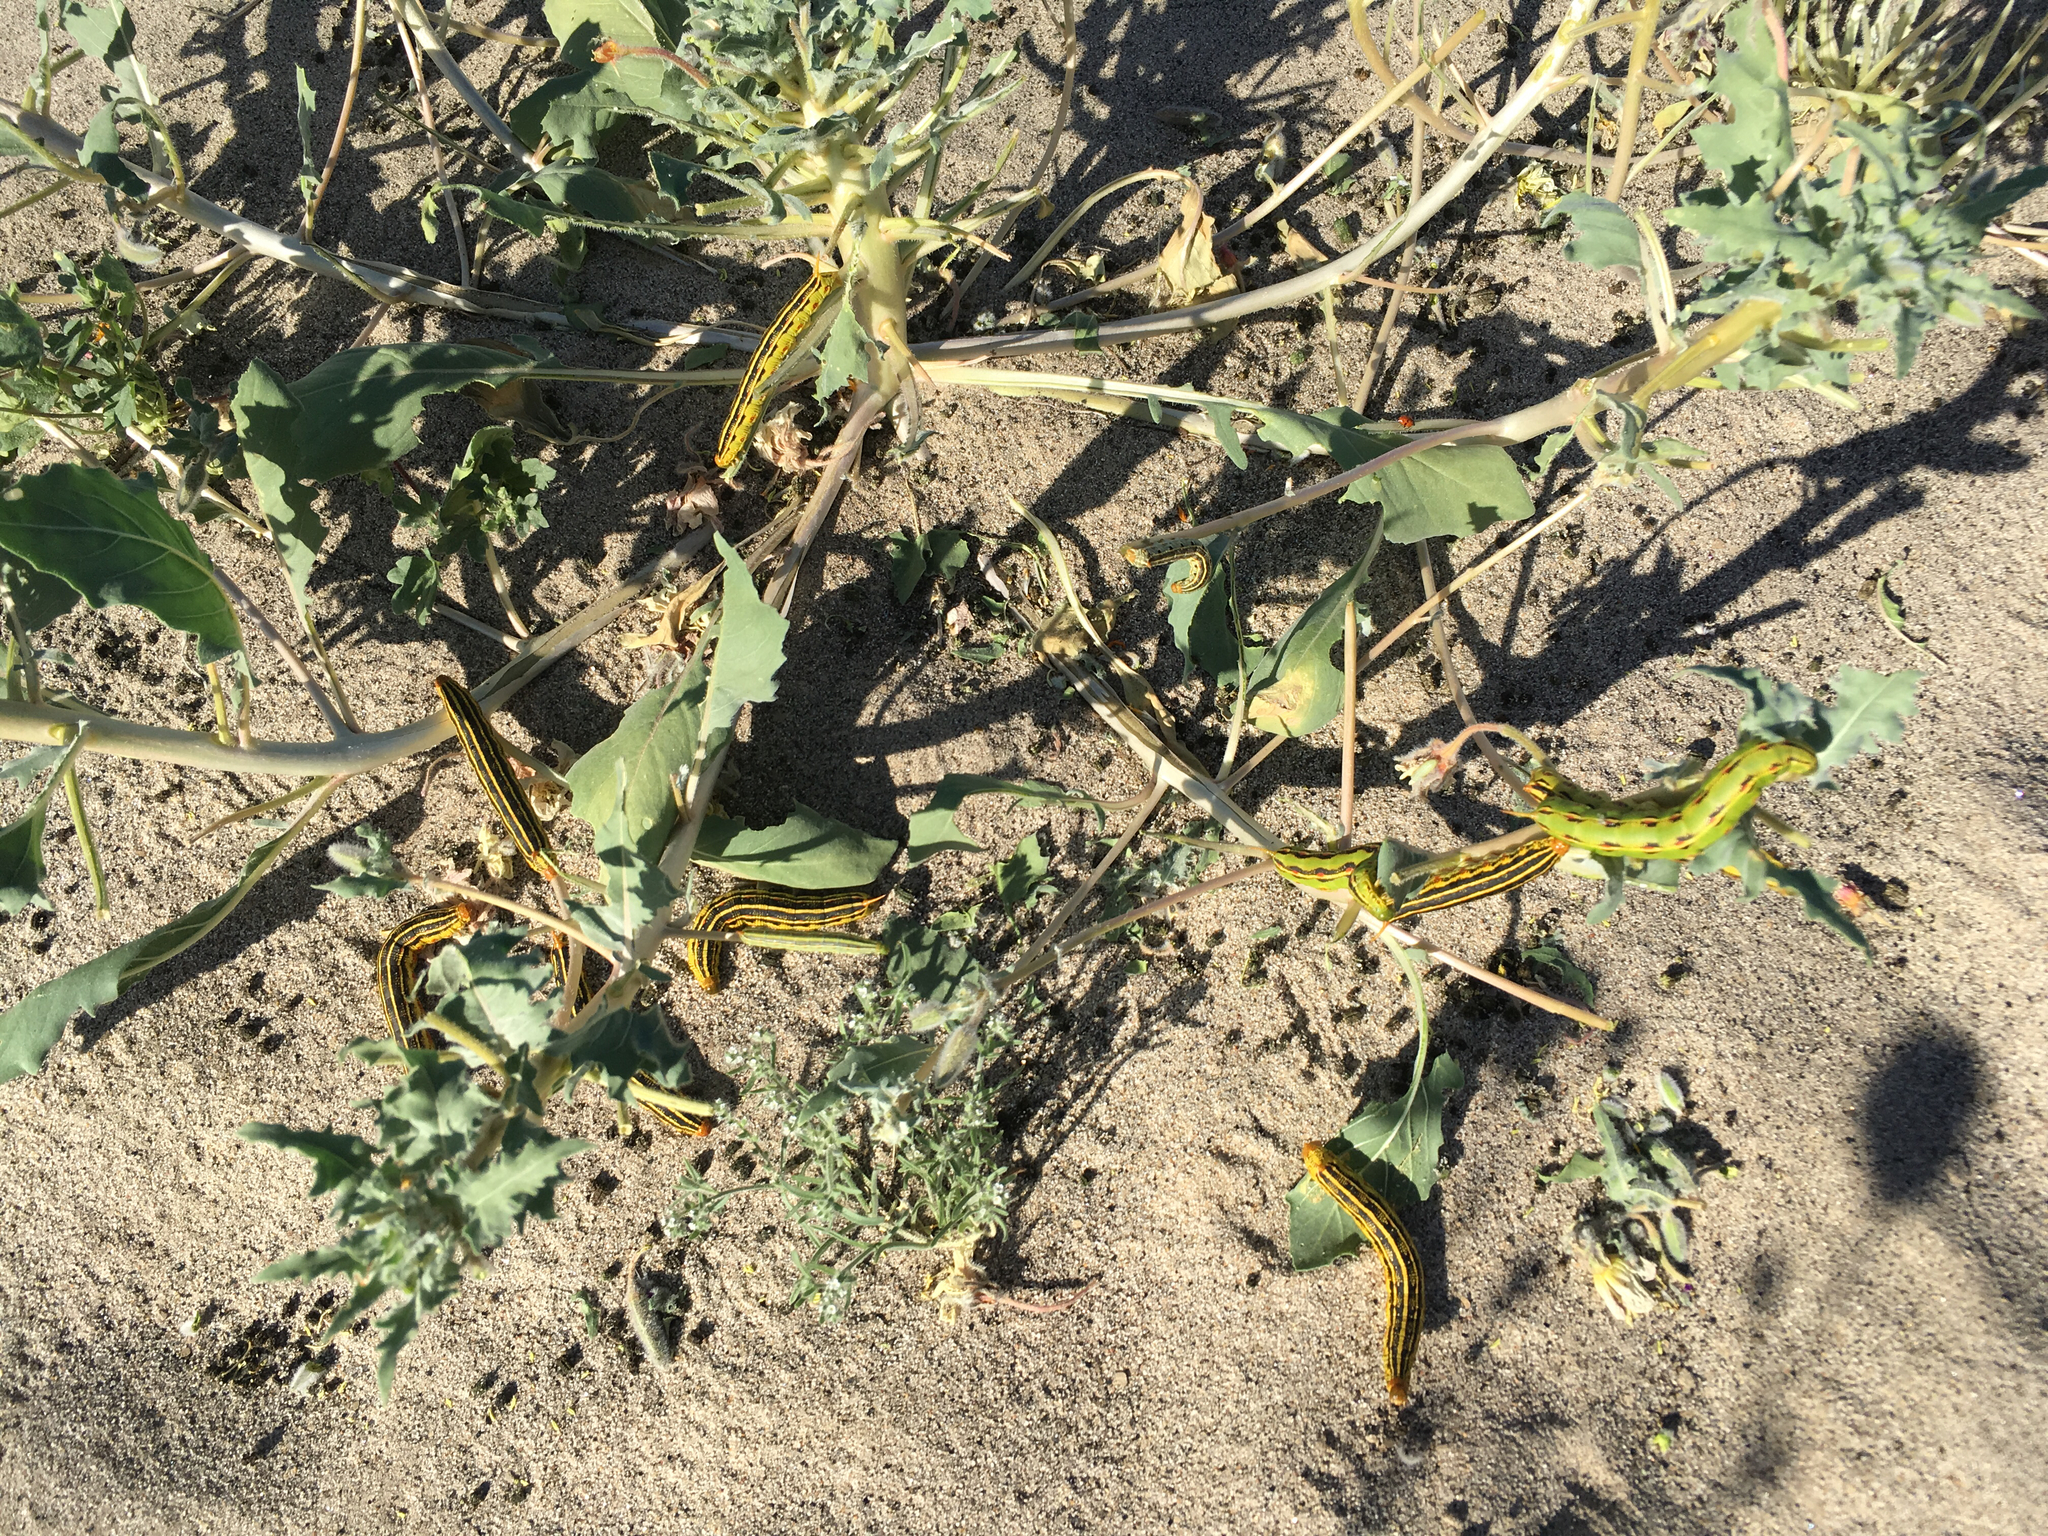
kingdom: Animalia
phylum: Arthropoda
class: Insecta
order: Lepidoptera
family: Sphingidae
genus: Hyles
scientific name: Hyles lineata
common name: White-lined sphinx
